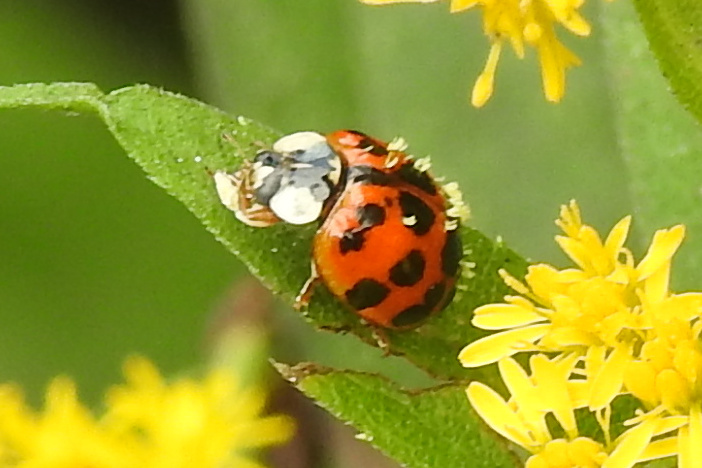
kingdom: Fungi
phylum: Ascomycota
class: Laboulbeniomycetes
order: Laboulbeniales
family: Laboulbeniaceae
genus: Hesperomyces
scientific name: Hesperomyces harmoniae
